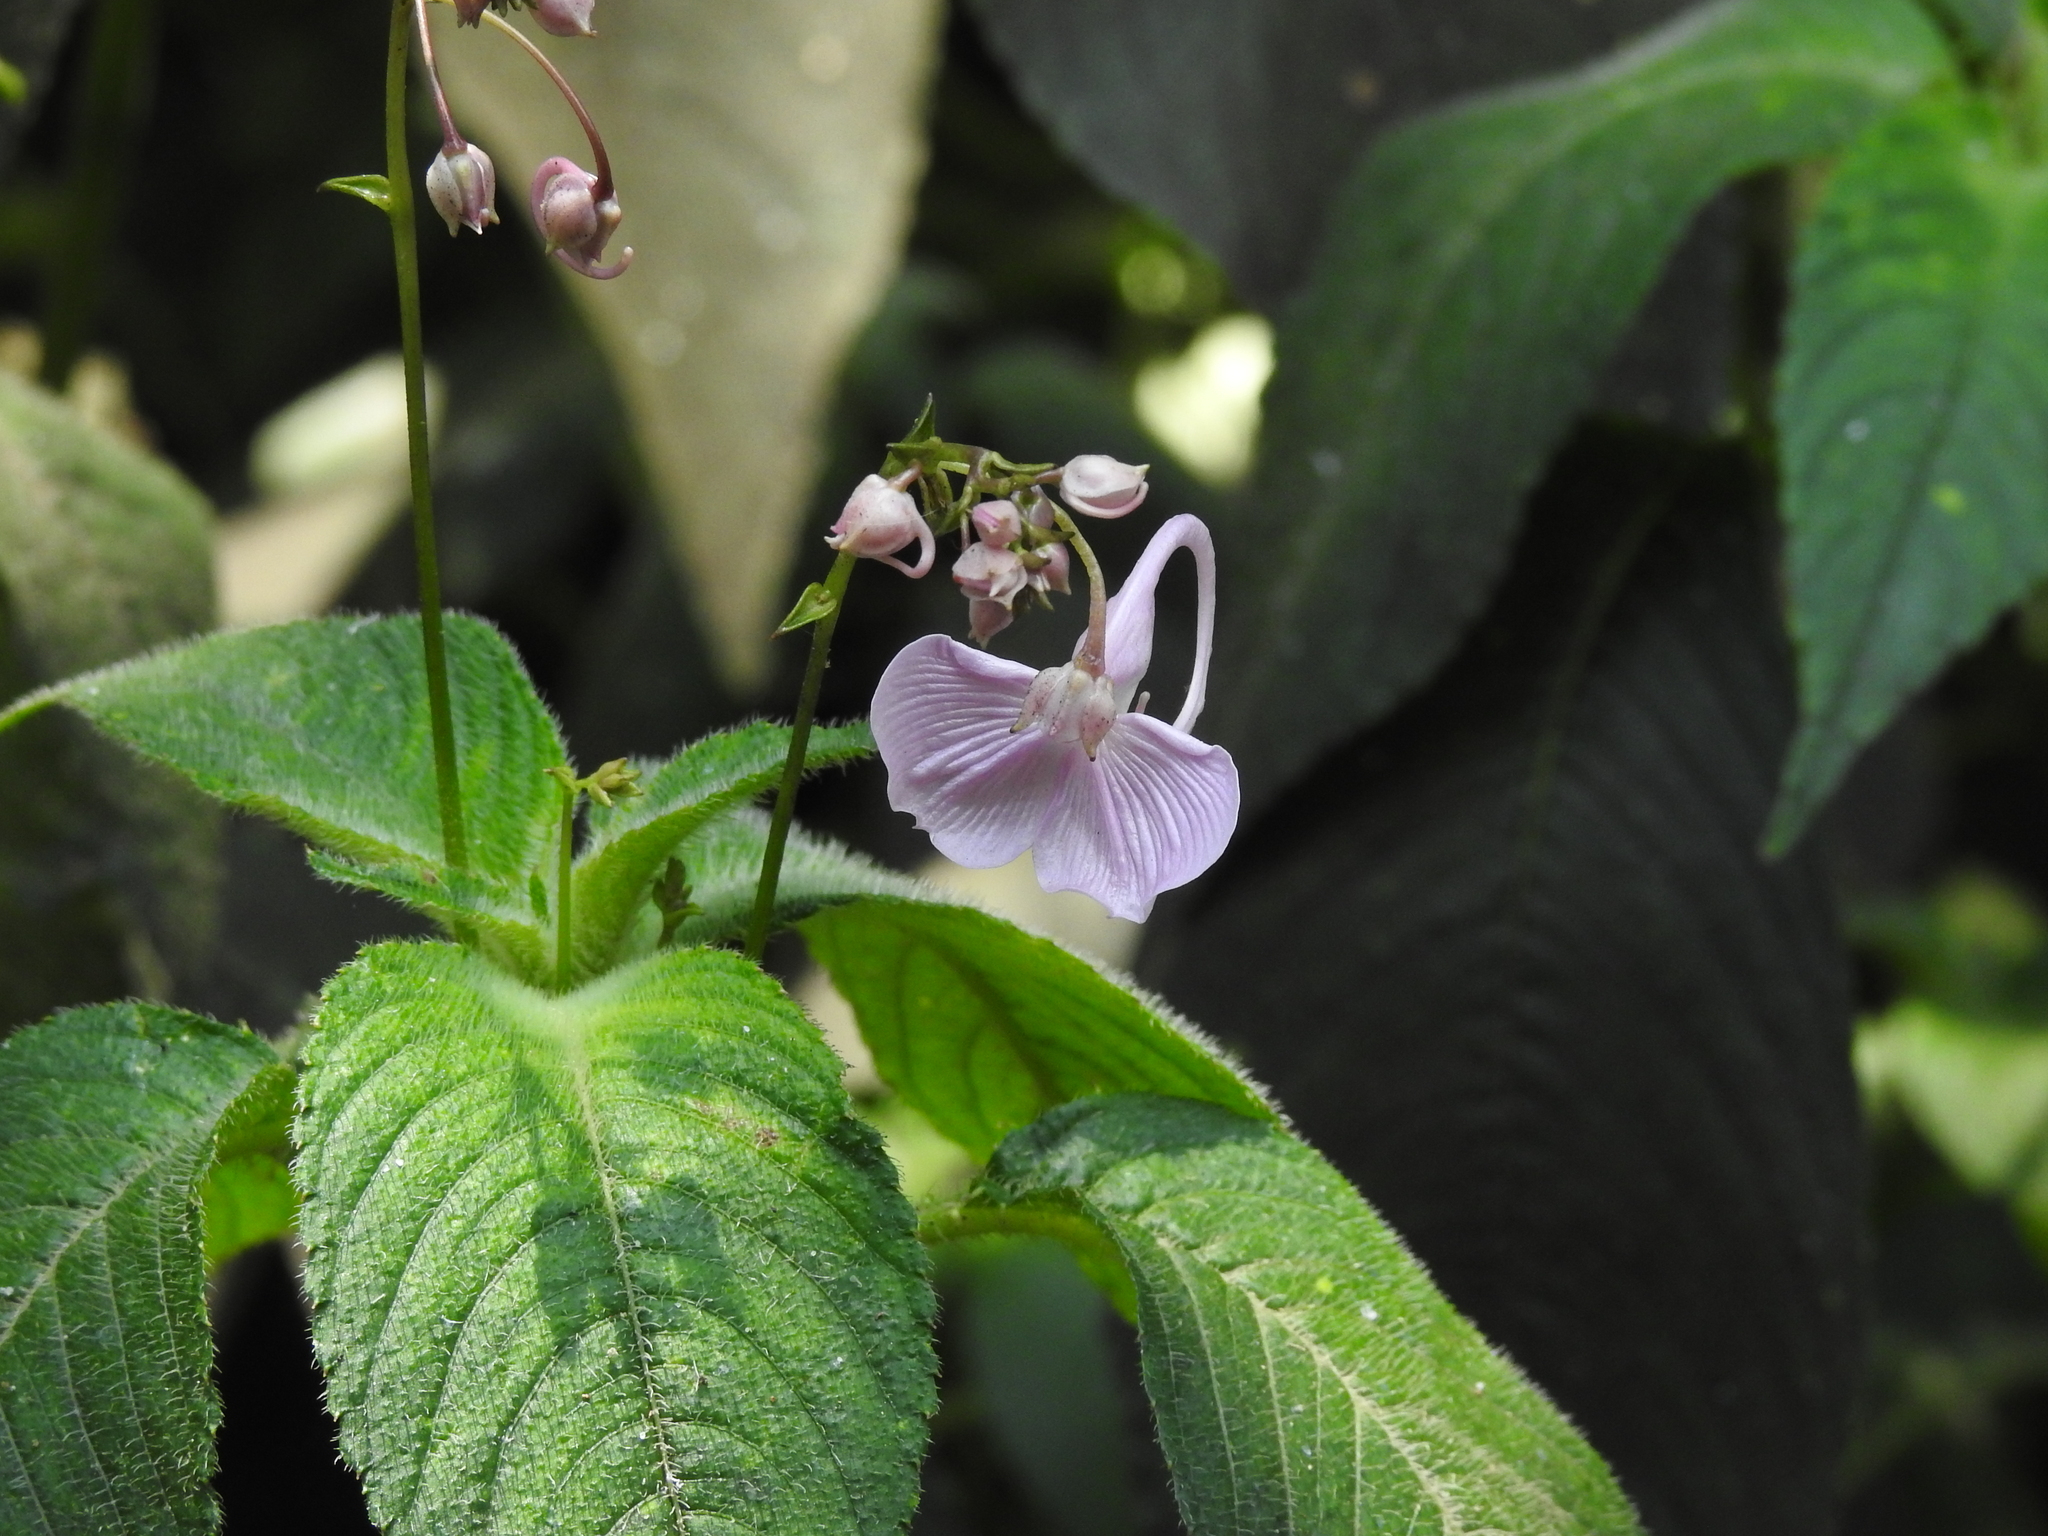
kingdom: Plantae
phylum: Tracheophyta
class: Magnoliopsida
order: Ericales
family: Balsaminaceae
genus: Impatiens
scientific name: Impatiens maculata
